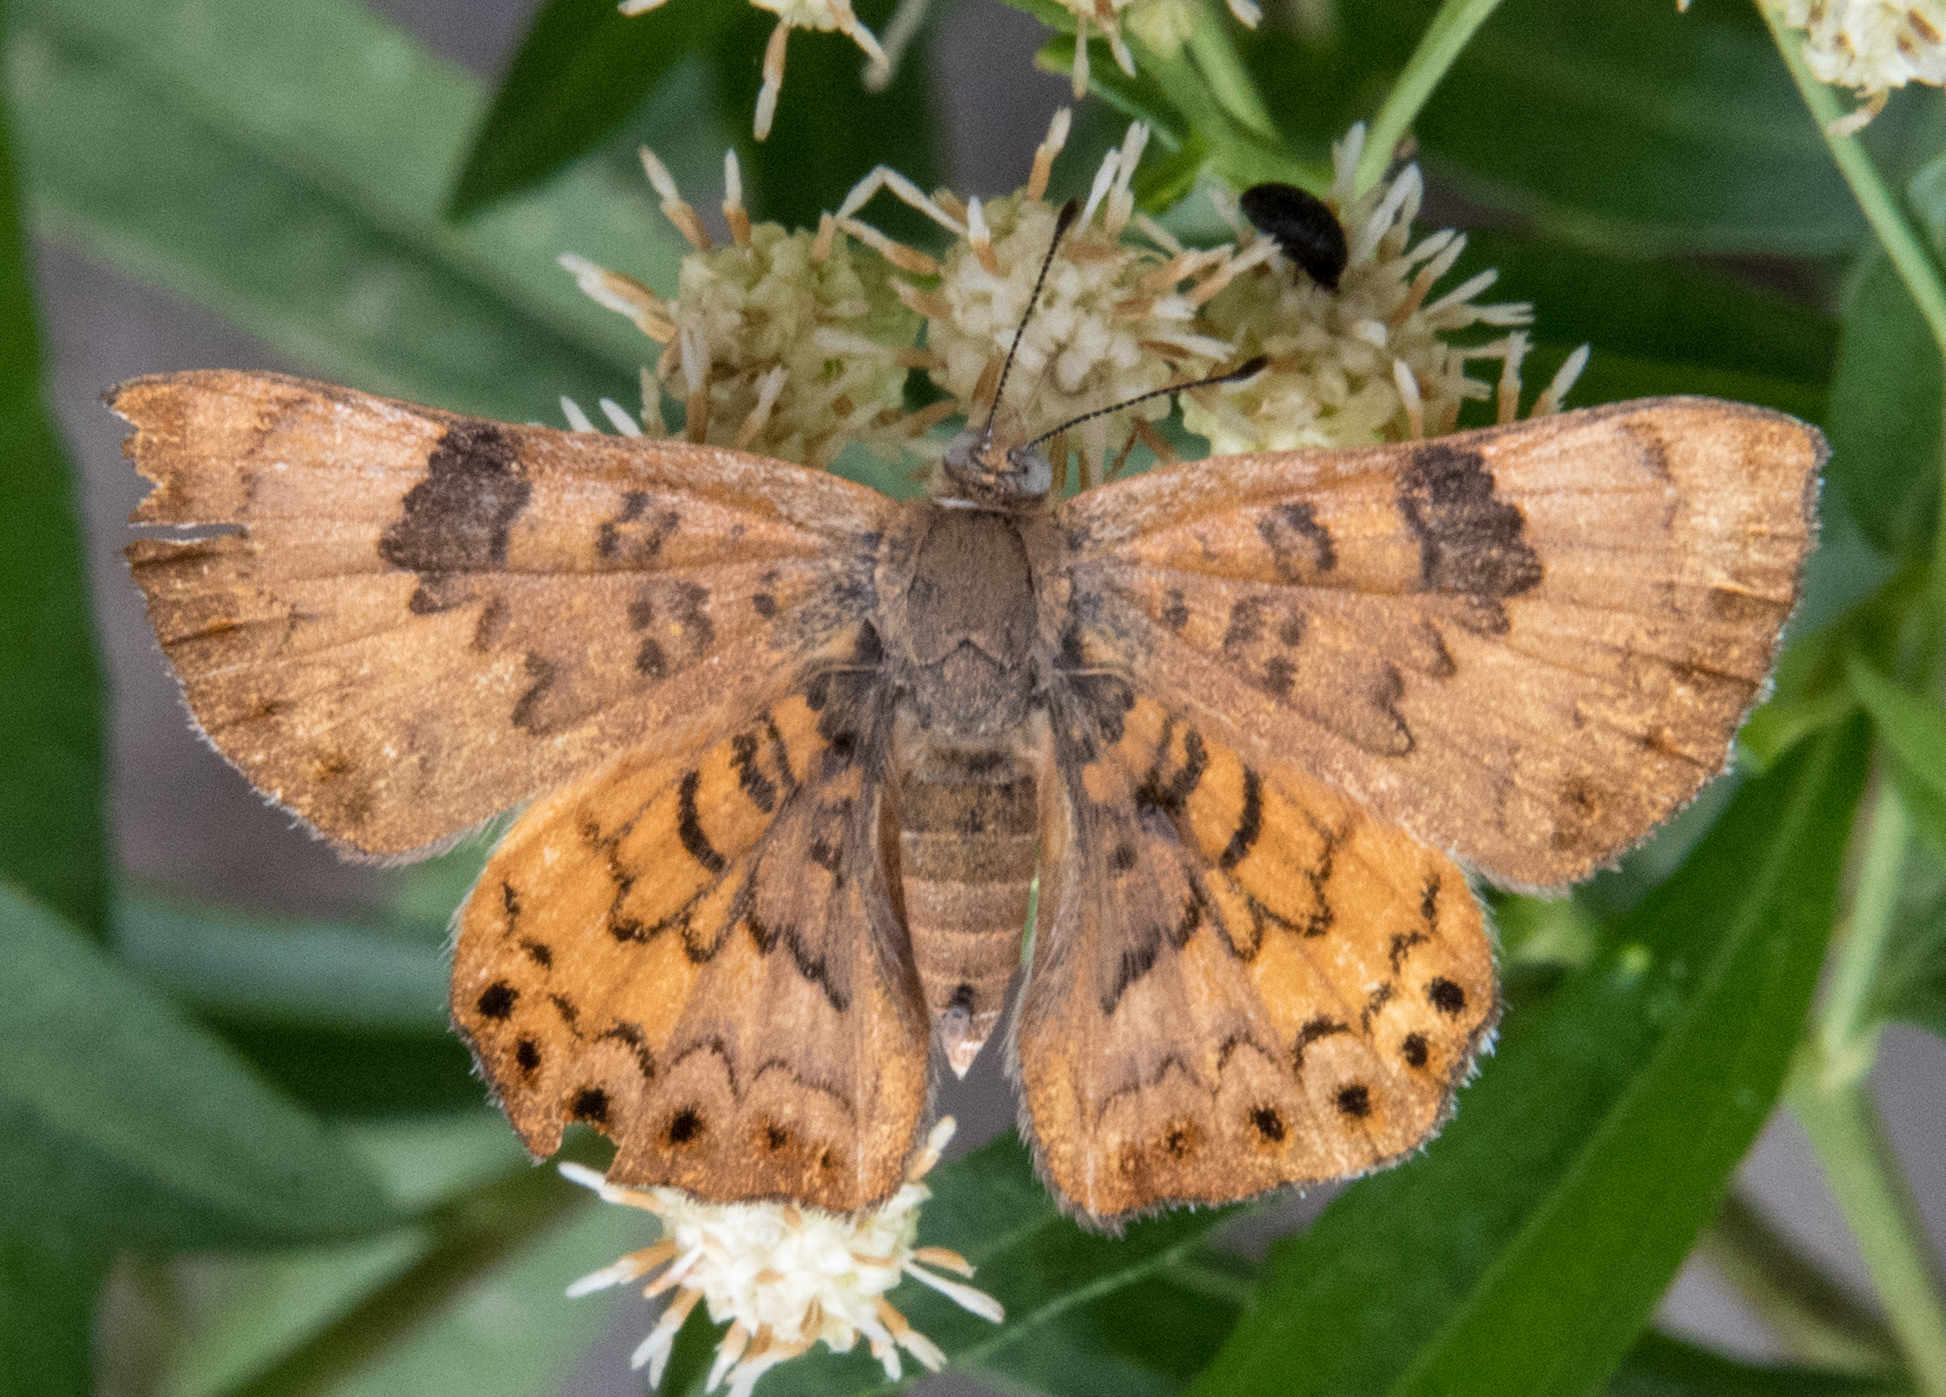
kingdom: Animalia
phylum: Arthropoda
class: Insecta
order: Lepidoptera
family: Riodinidae
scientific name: Riodinidae
